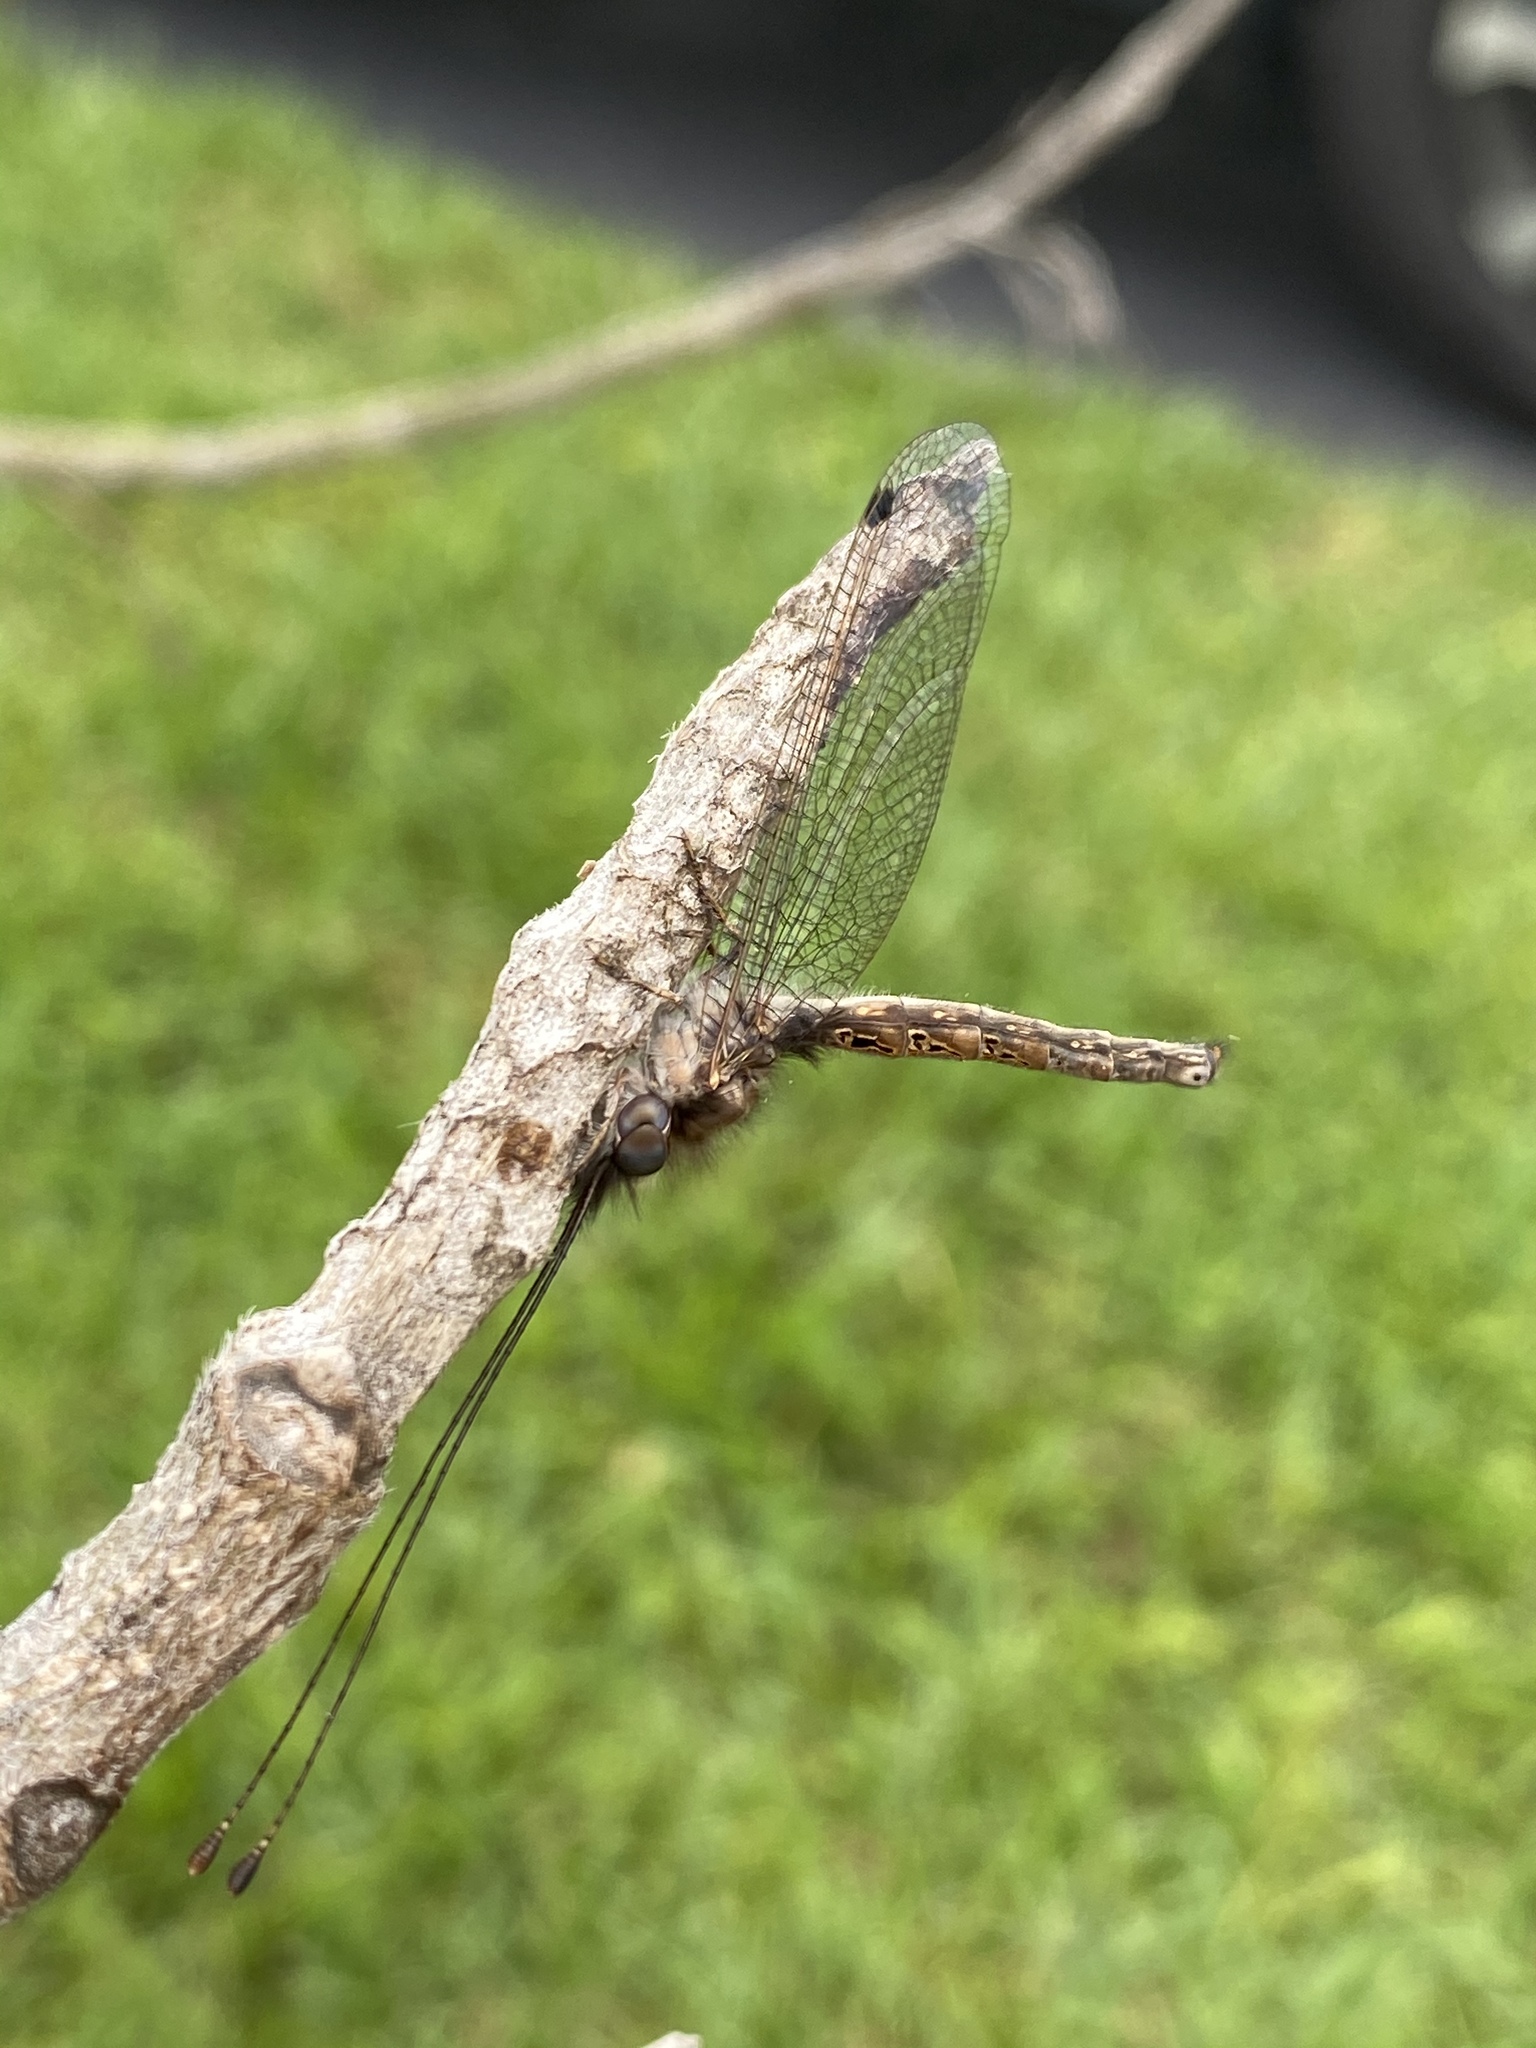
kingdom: Animalia
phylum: Arthropoda
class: Insecta
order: Neuroptera
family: Ascalaphidae
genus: Ululodes
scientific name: Ululodes macleayanus
